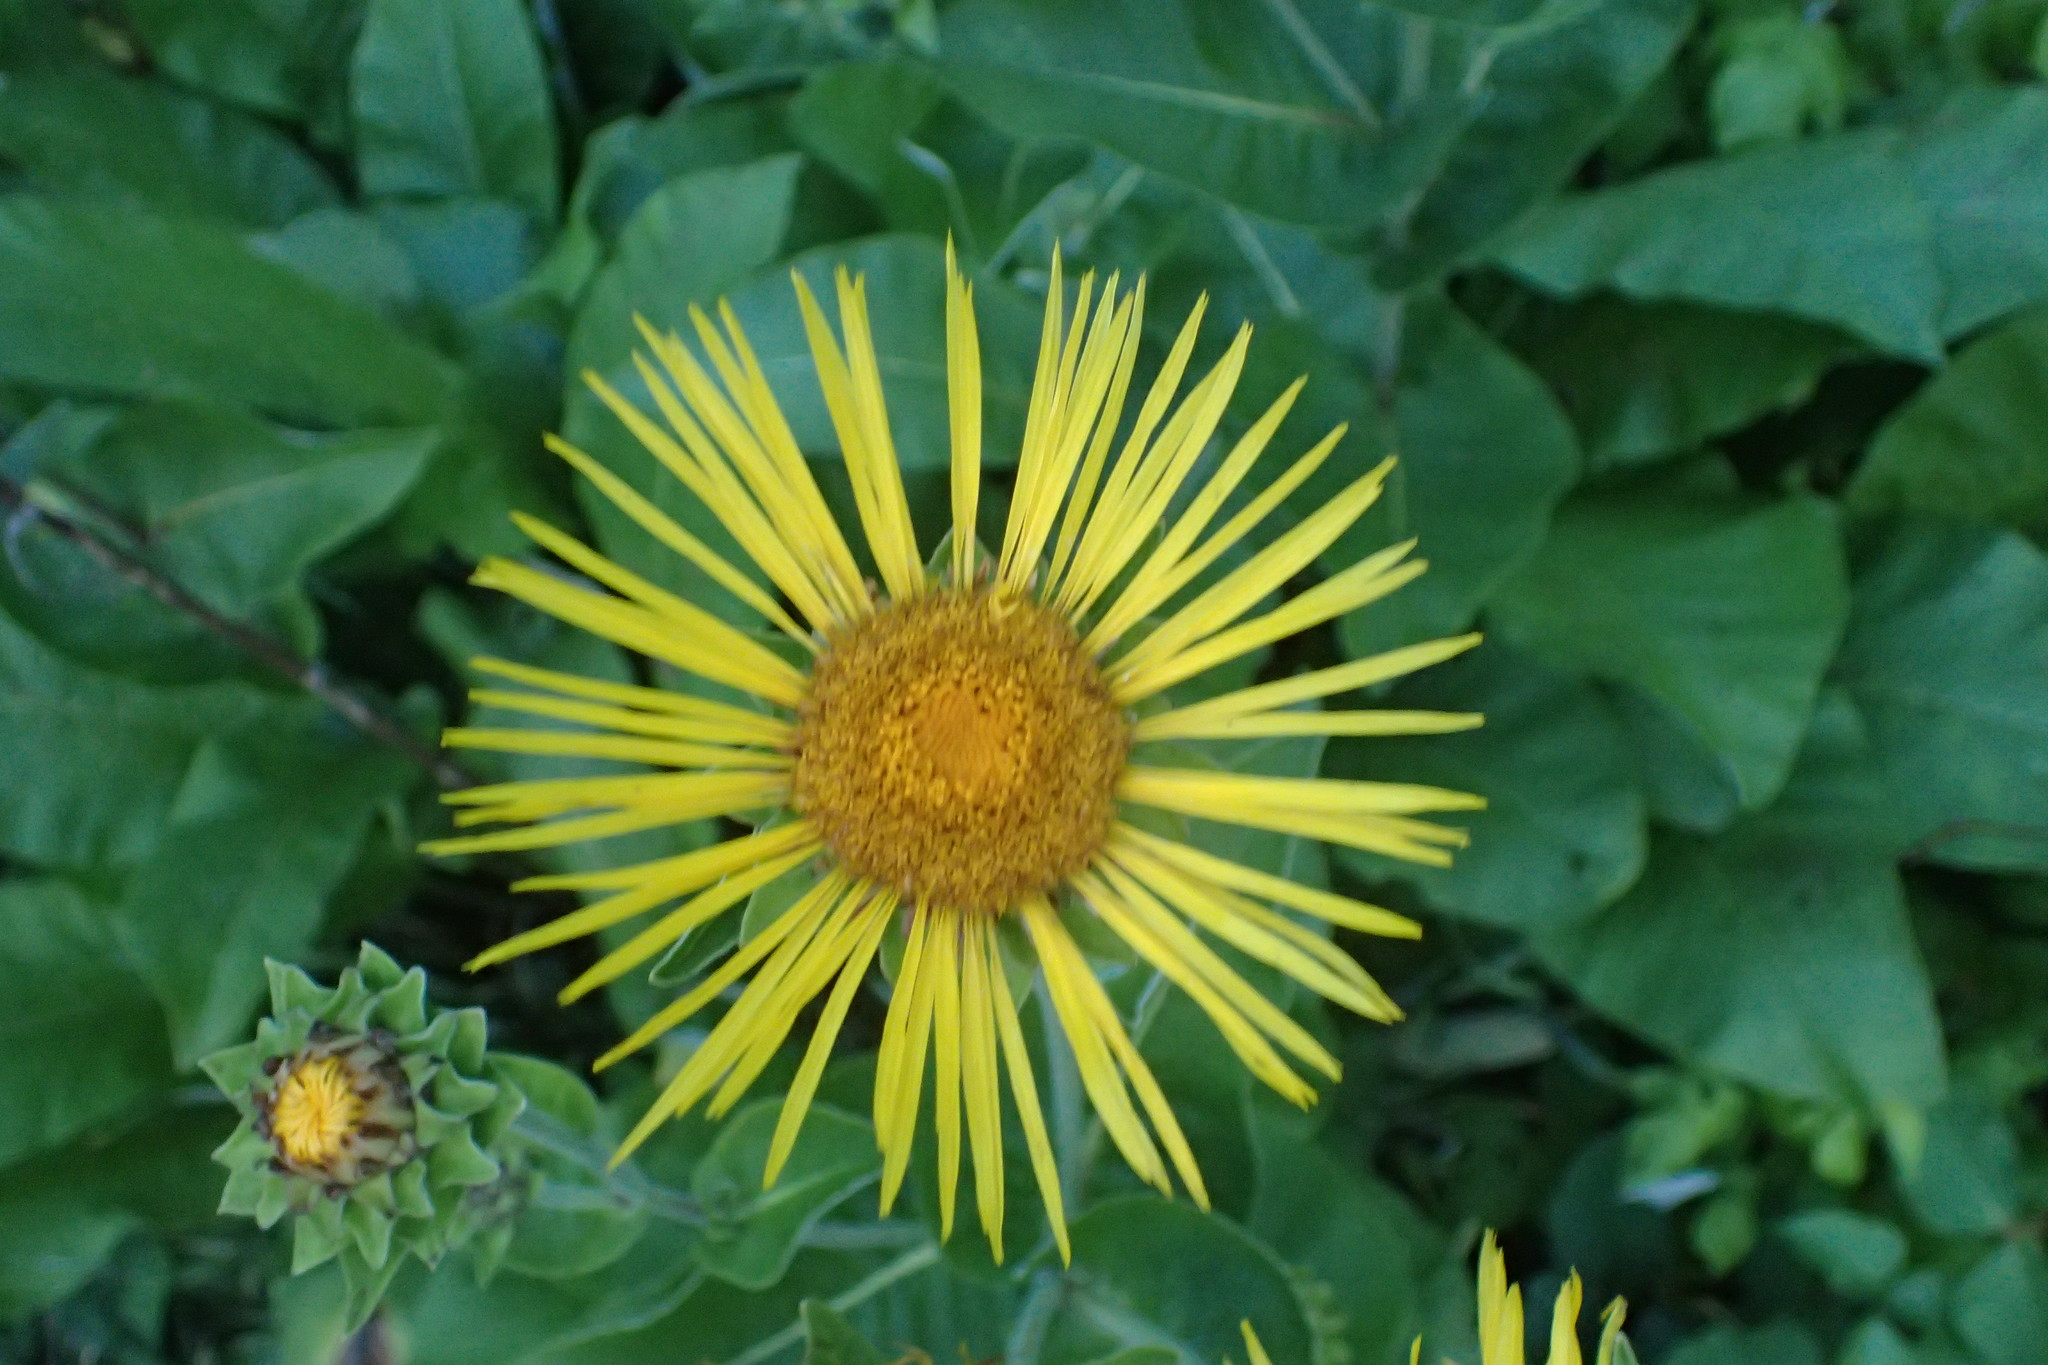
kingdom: Plantae
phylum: Tracheophyta
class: Magnoliopsida
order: Asterales
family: Asteraceae
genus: Inula
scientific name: Inula helenium
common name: Elecampane
